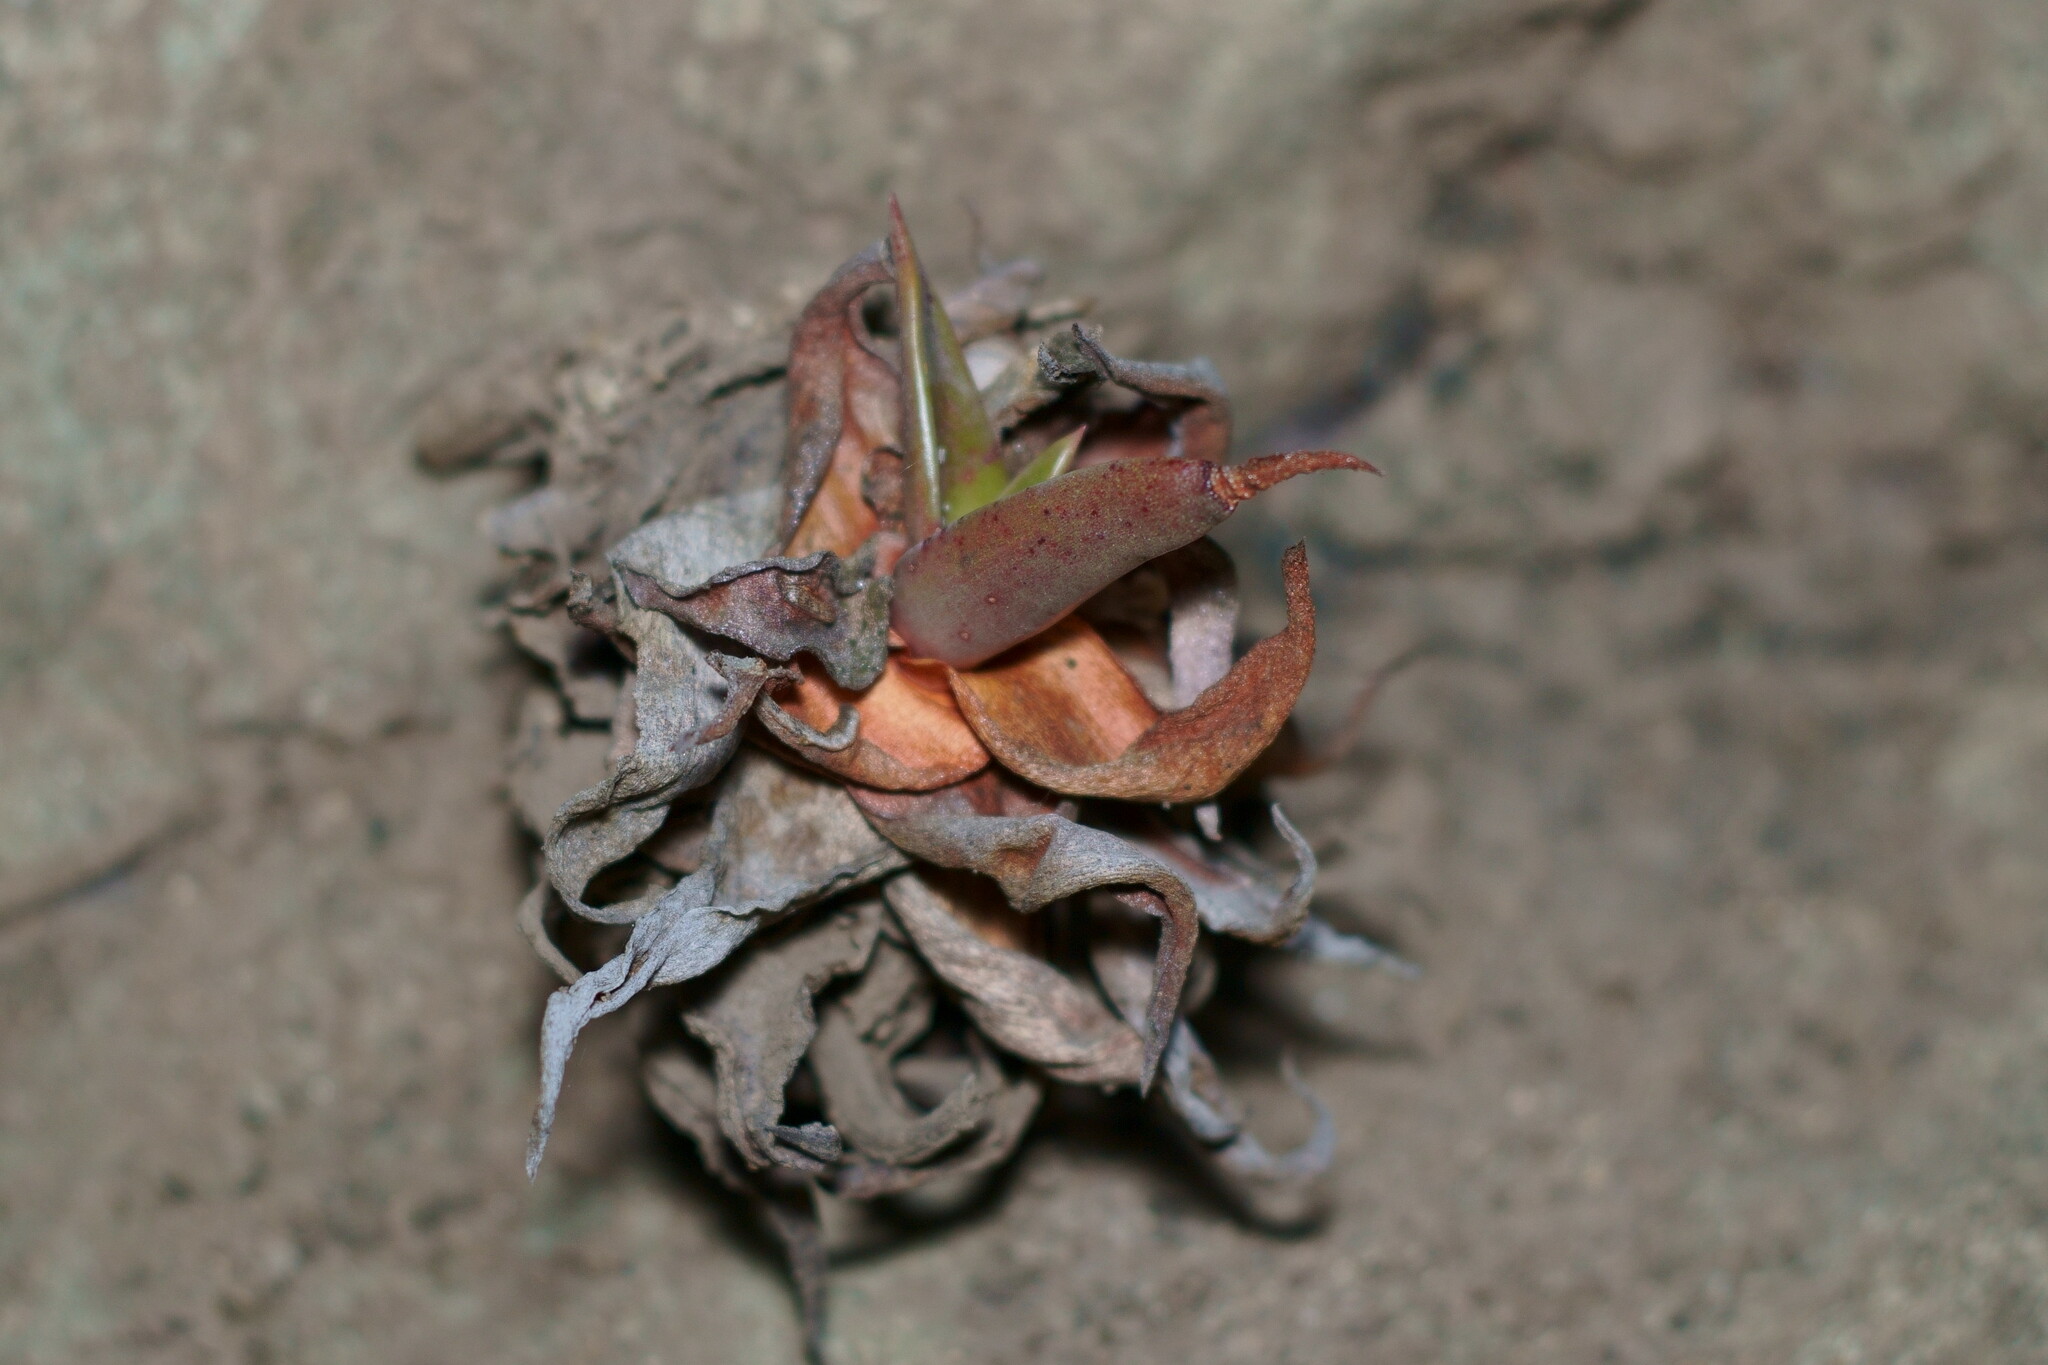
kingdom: Plantae
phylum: Tracheophyta
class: Magnoliopsida
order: Saxifragales
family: Crassulaceae
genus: Dudleya
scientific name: Dudleya lanceolata
